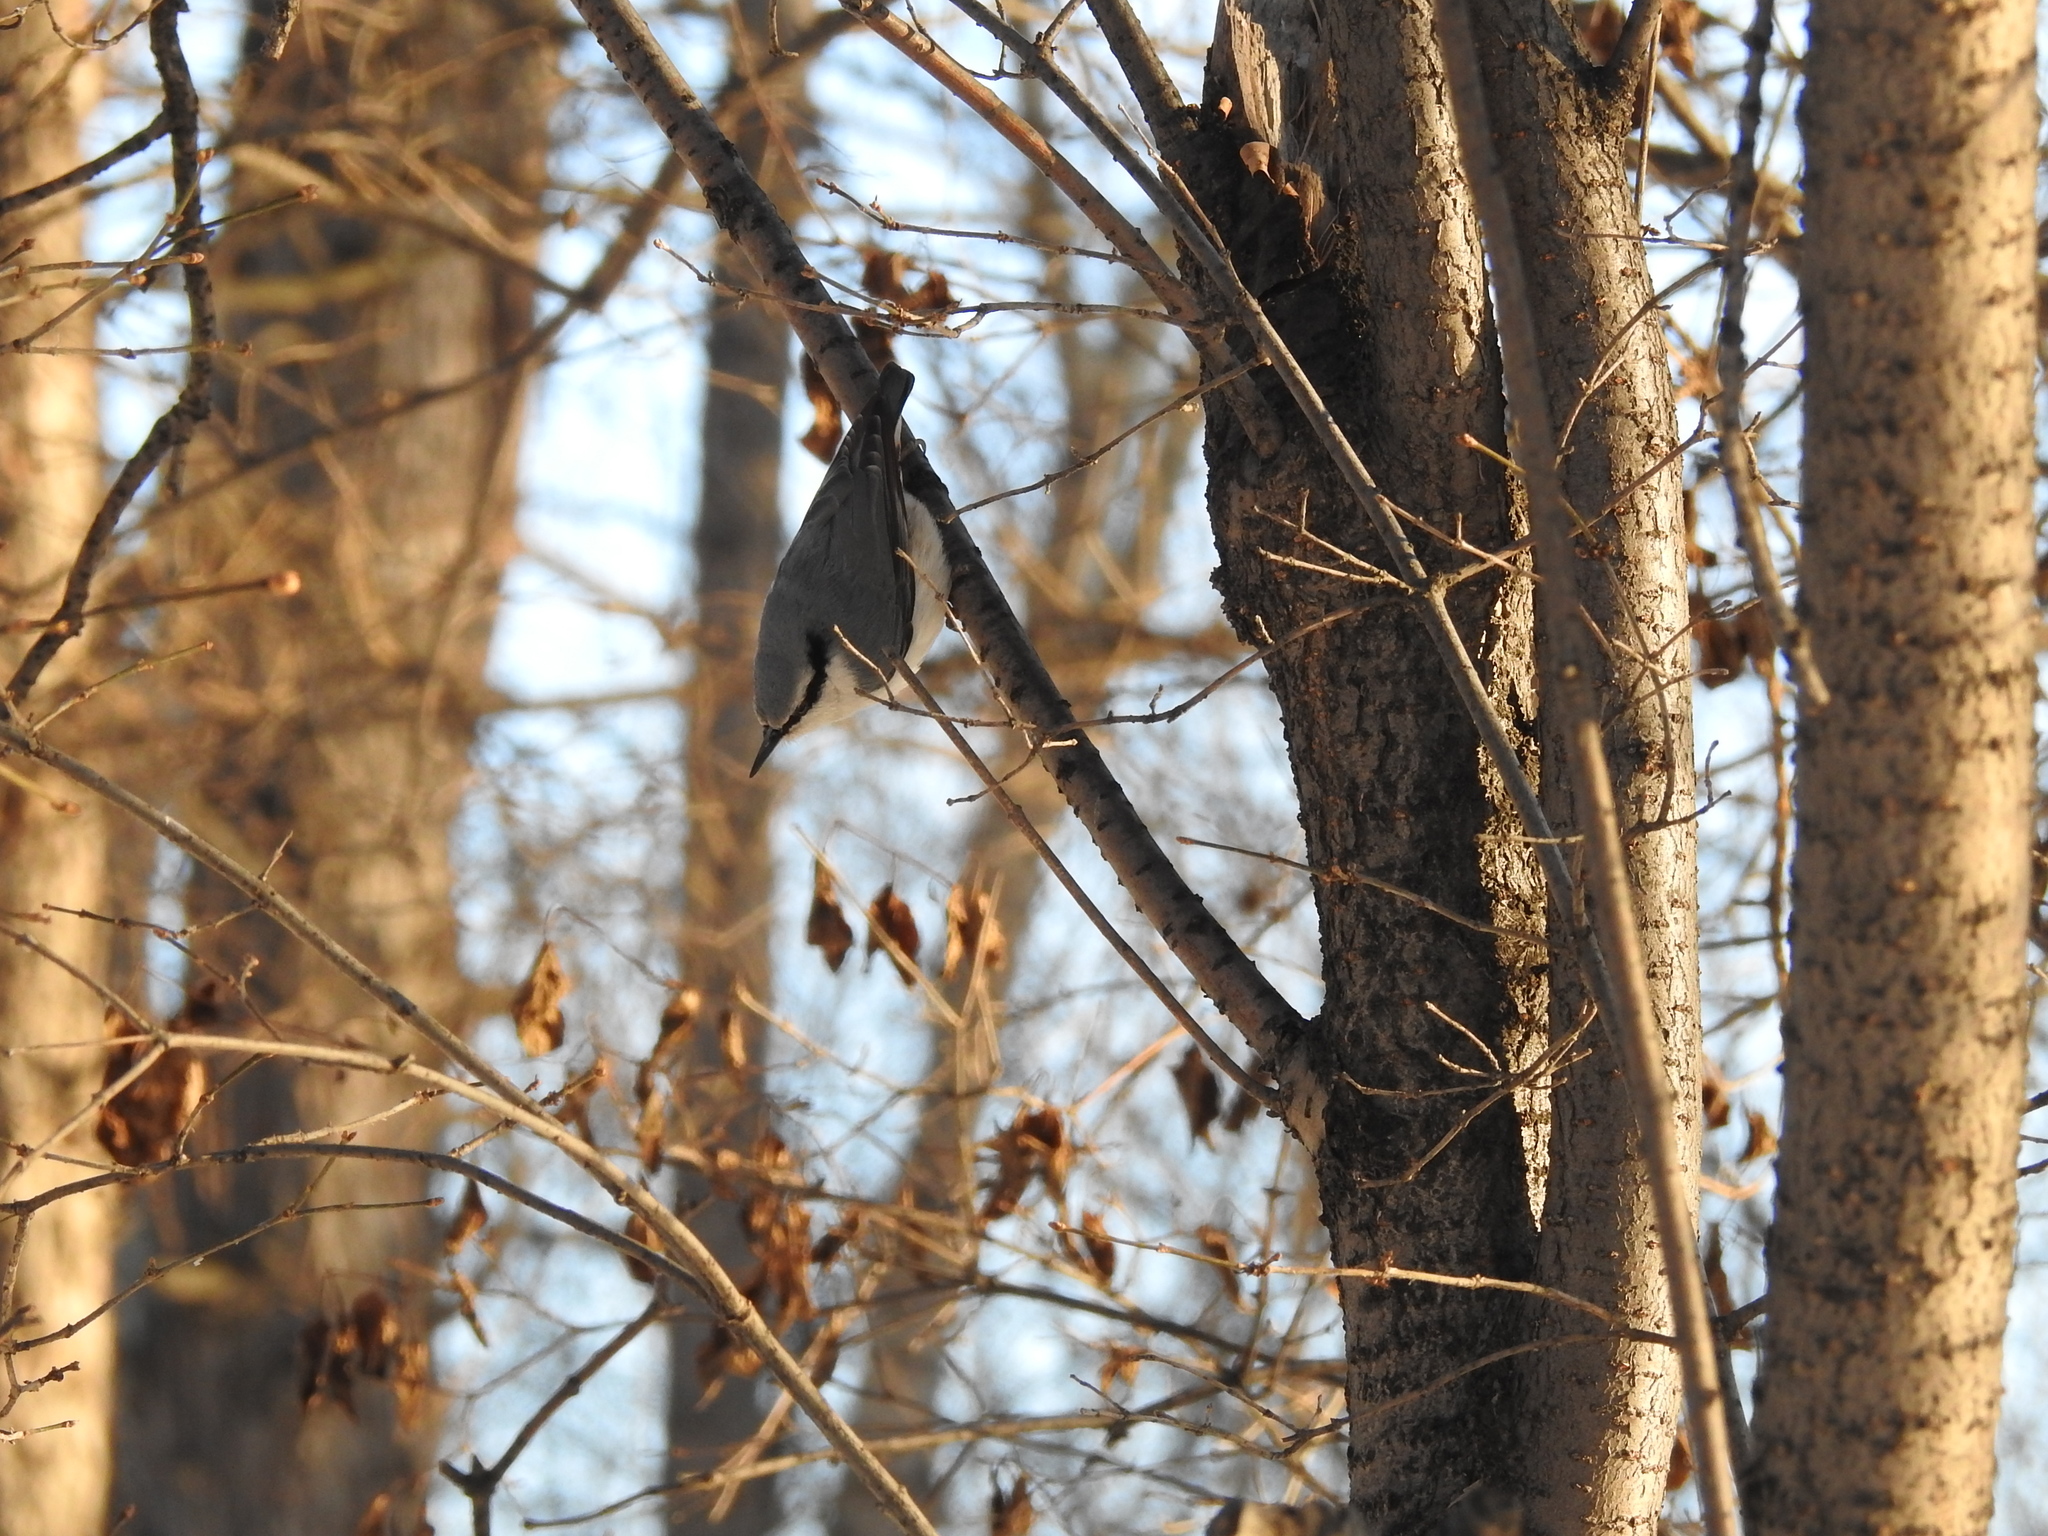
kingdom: Animalia
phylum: Chordata
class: Aves
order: Passeriformes
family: Sittidae
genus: Sitta
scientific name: Sitta europaea
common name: Eurasian nuthatch
